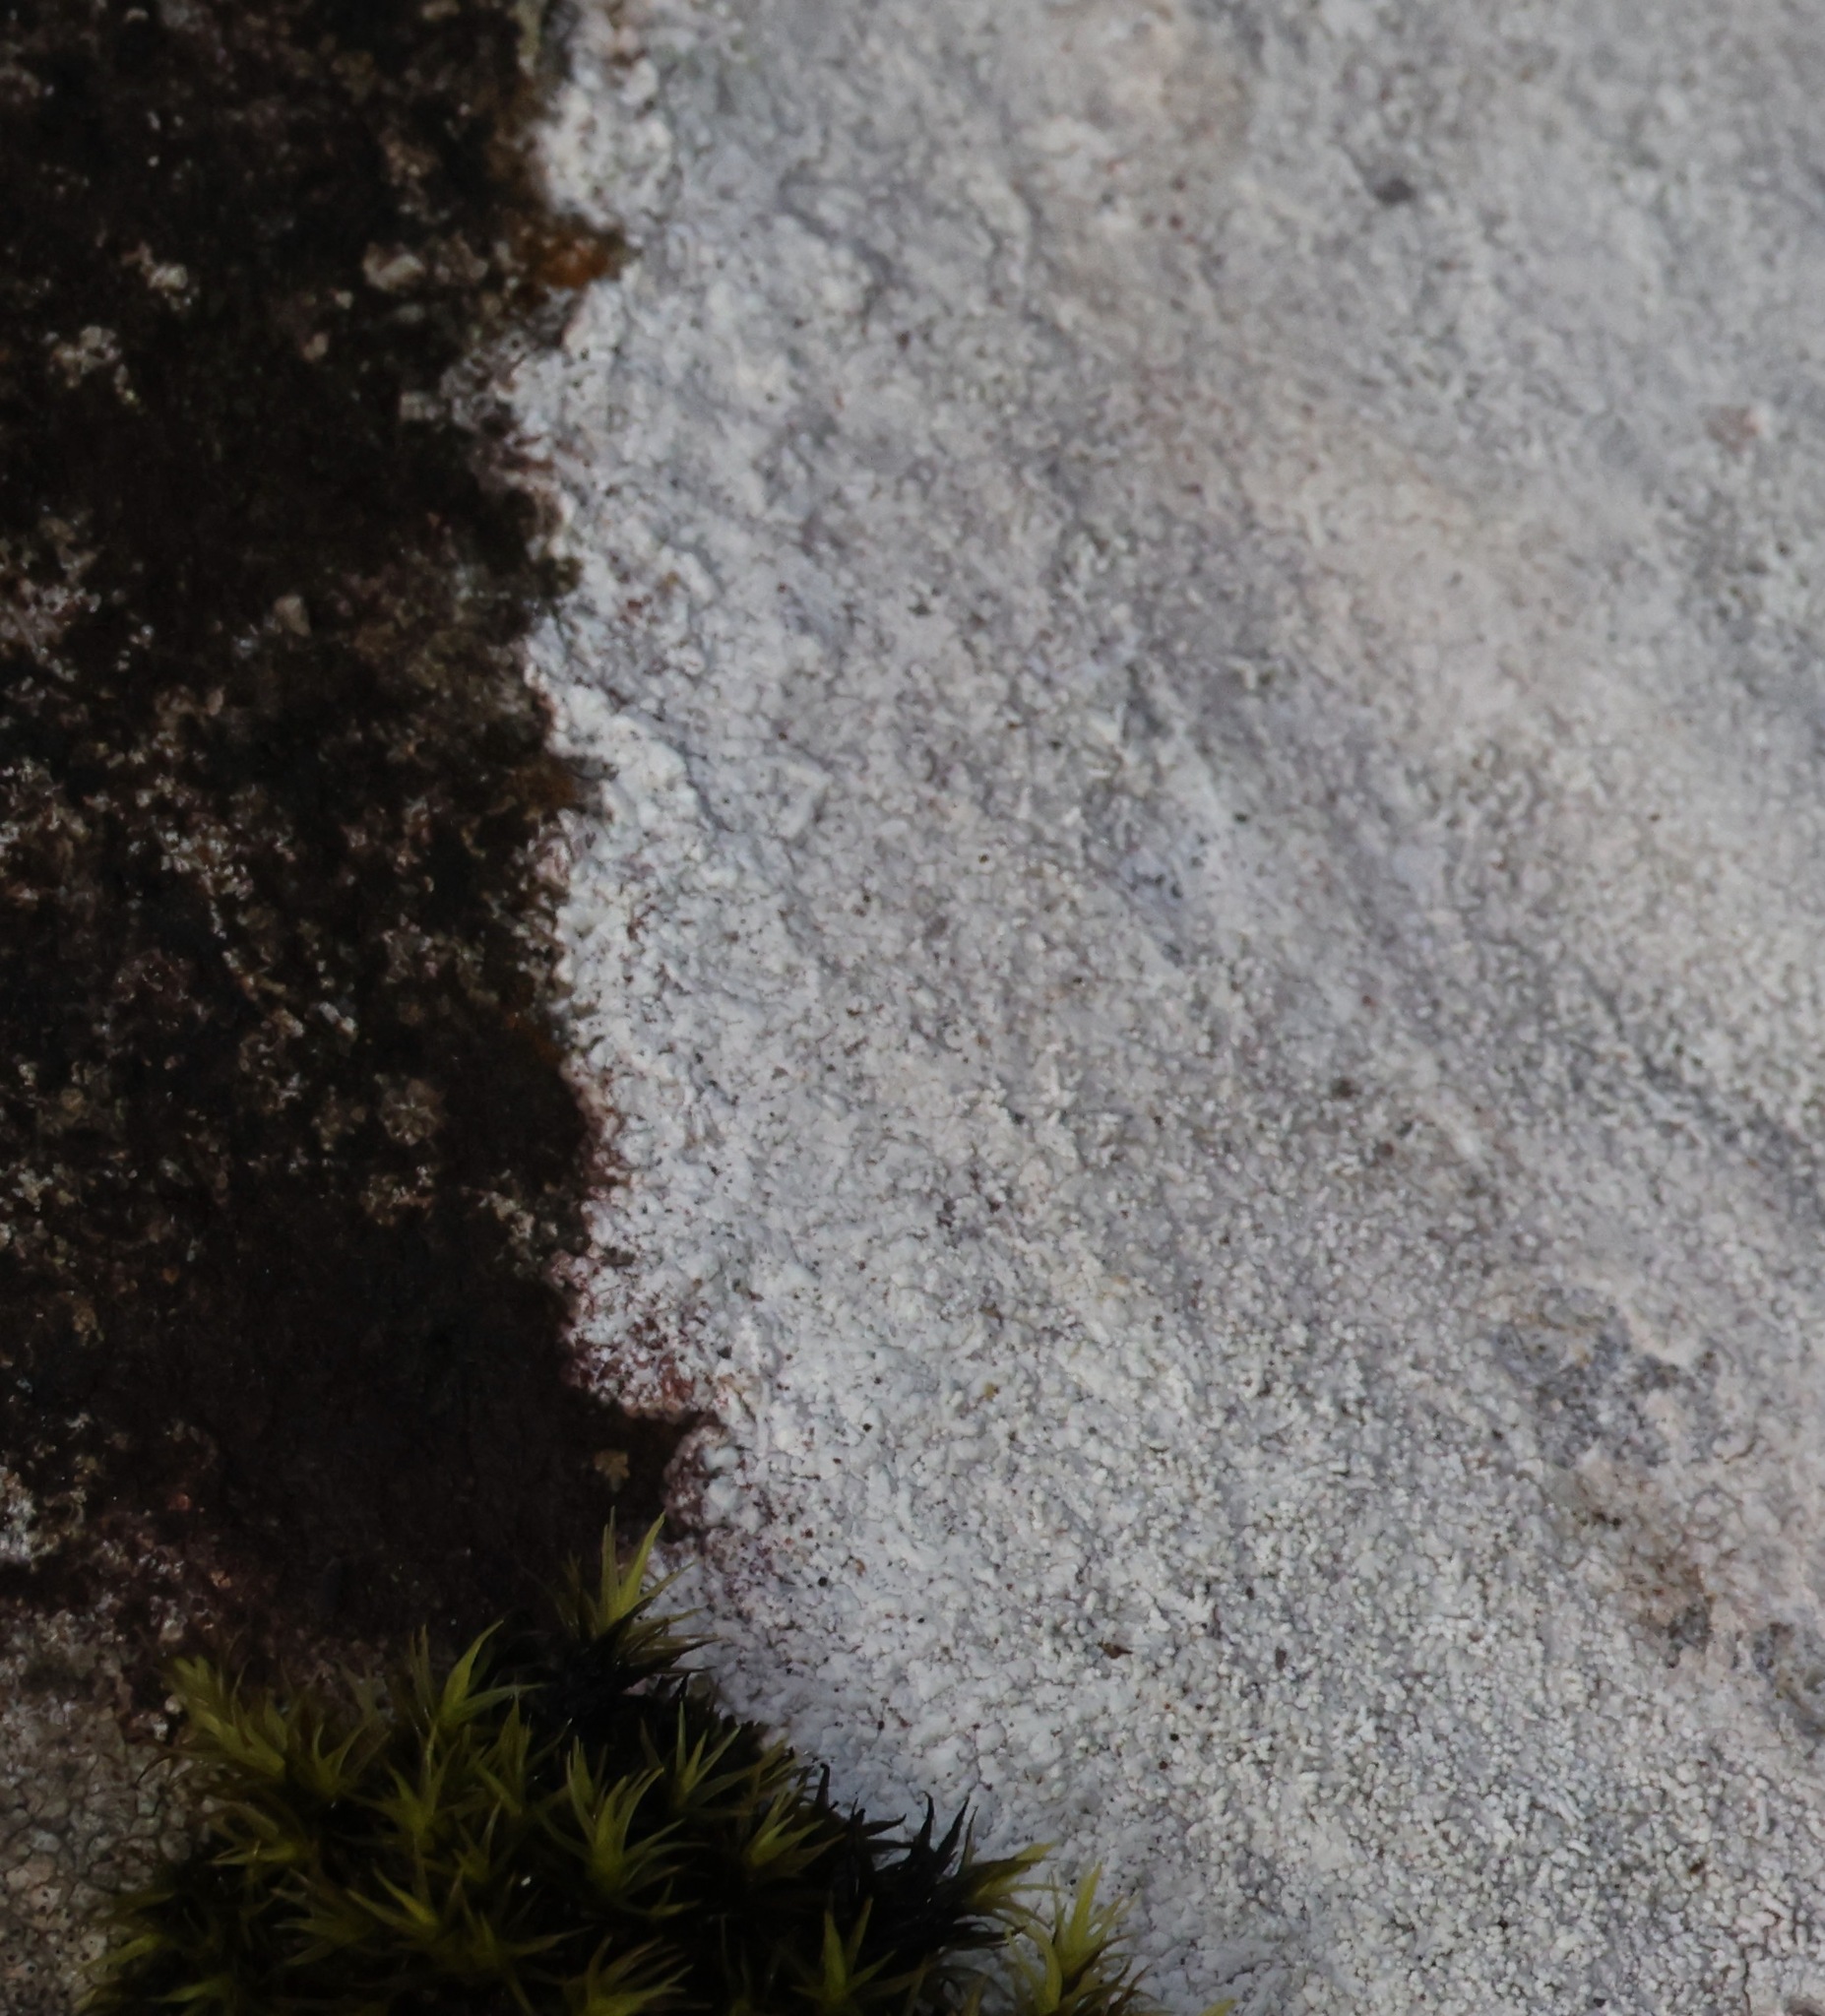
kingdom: Fungi
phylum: Ascomycota
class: Lecanoromycetes
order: Pertusariales
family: Pertusariaceae
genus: Lepra
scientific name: Lepra corallina
